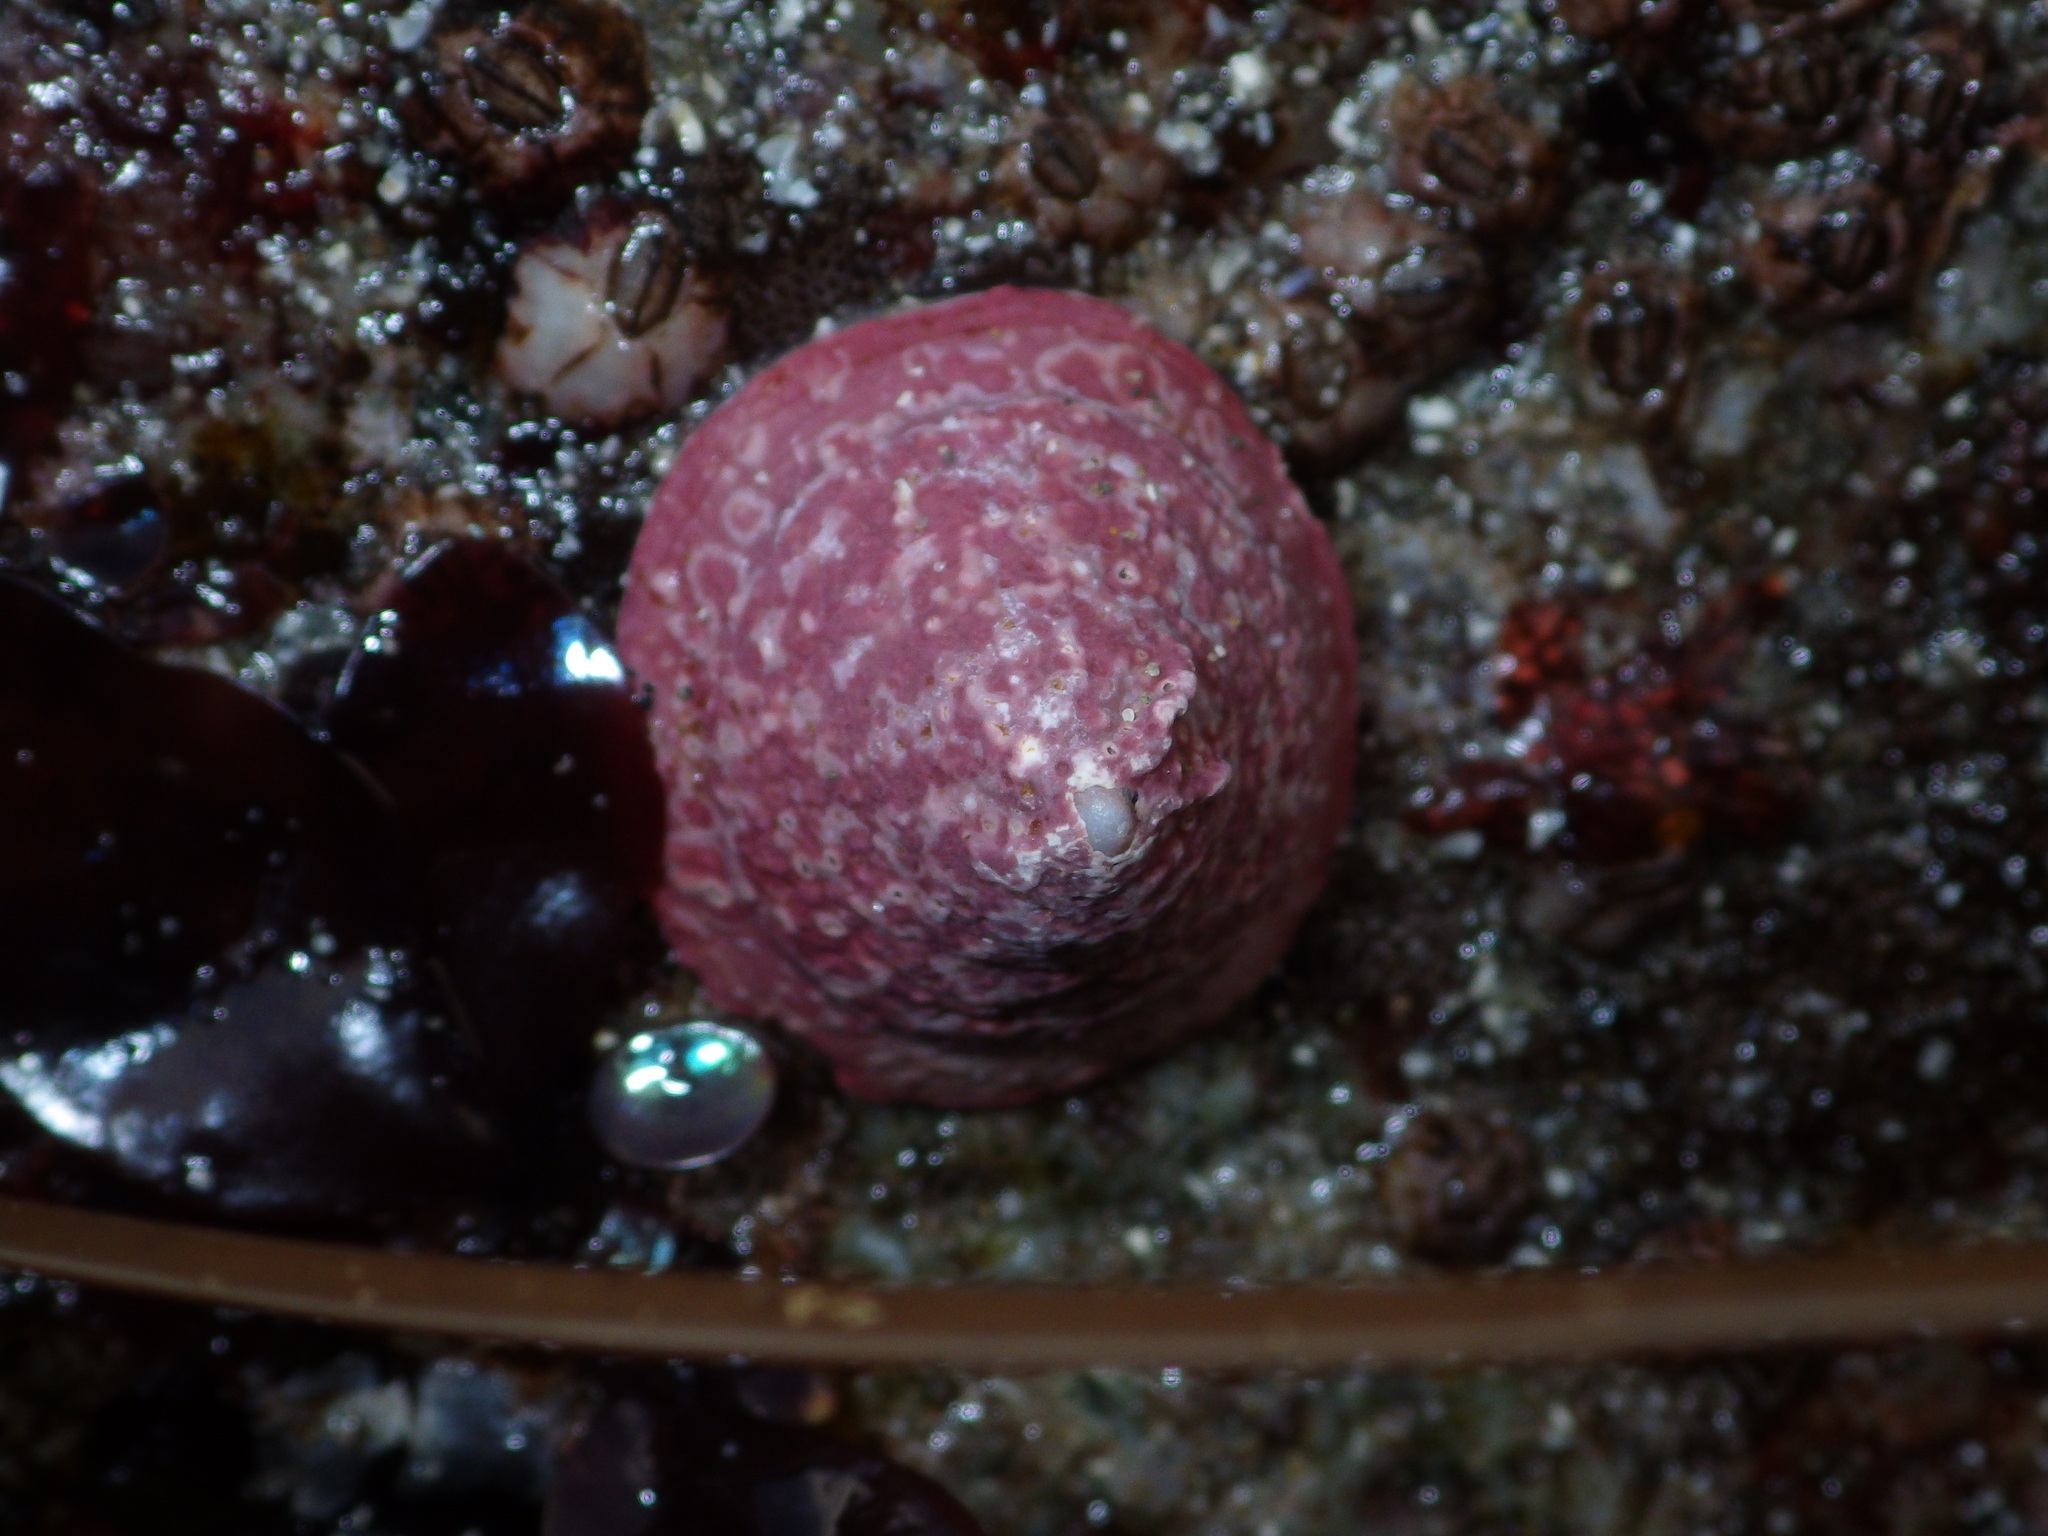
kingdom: Animalia
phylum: Mollusca
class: Gastropoda
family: Acmaeidae
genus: Acmaea
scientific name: Acmaea mitra
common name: Pacific white cap limpet
